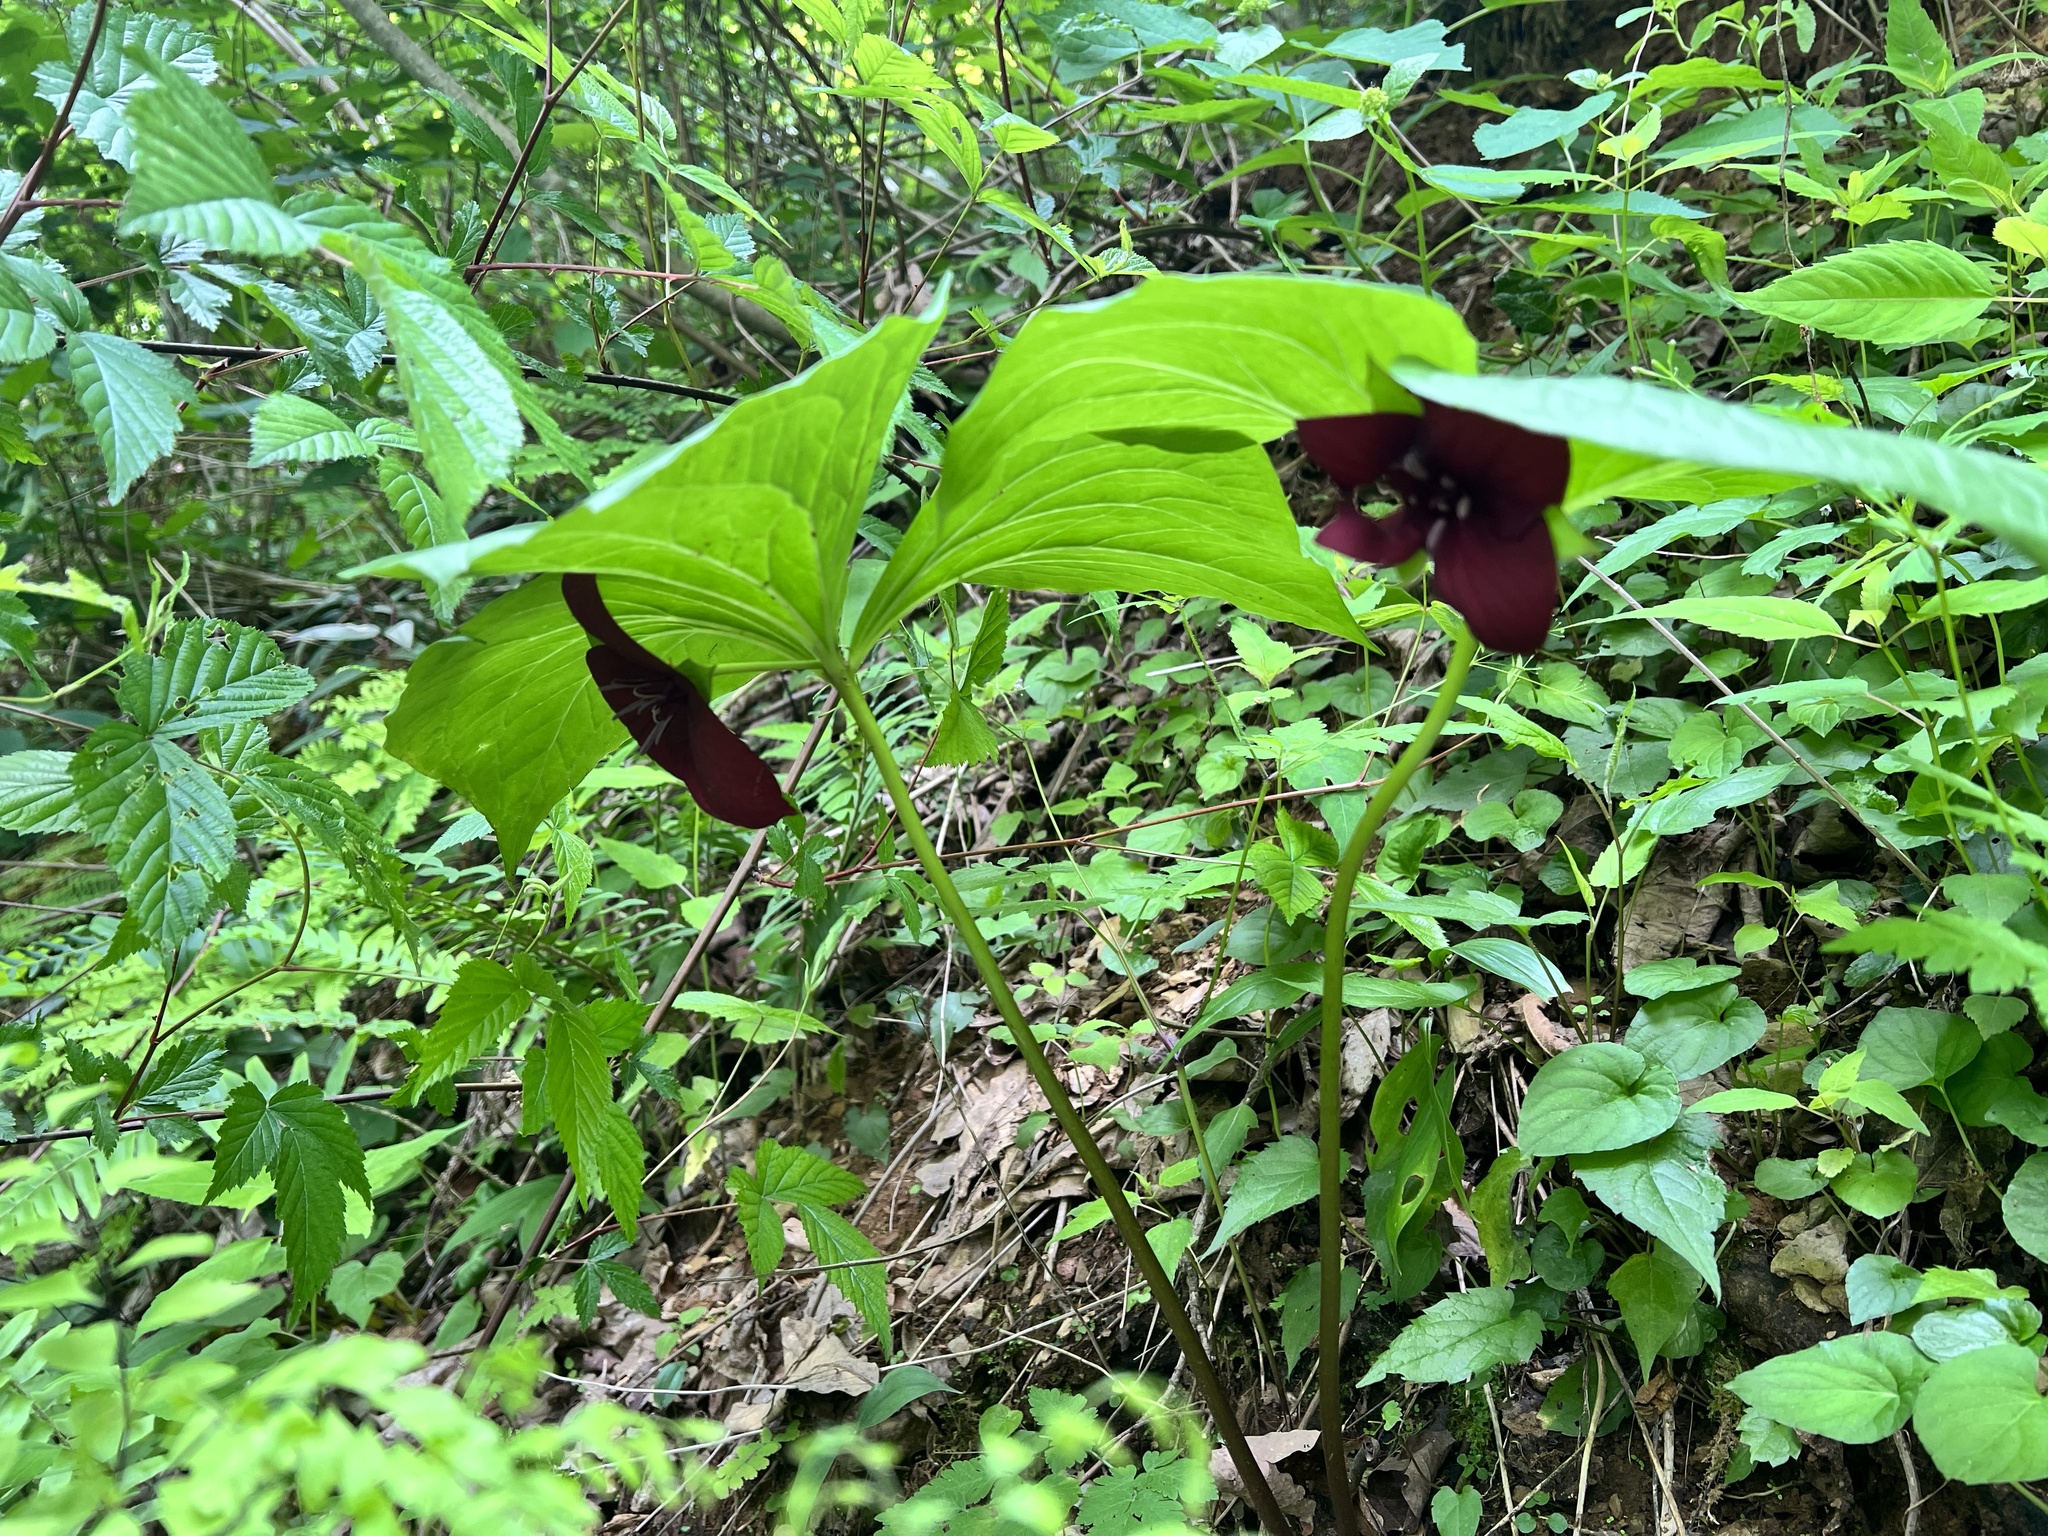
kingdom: Plantae
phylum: Tracheophyta
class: Liliopsida
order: Liliales
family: Melanthiaceae
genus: Trillium
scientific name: Trillium vaseyi
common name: Sweet trillium
